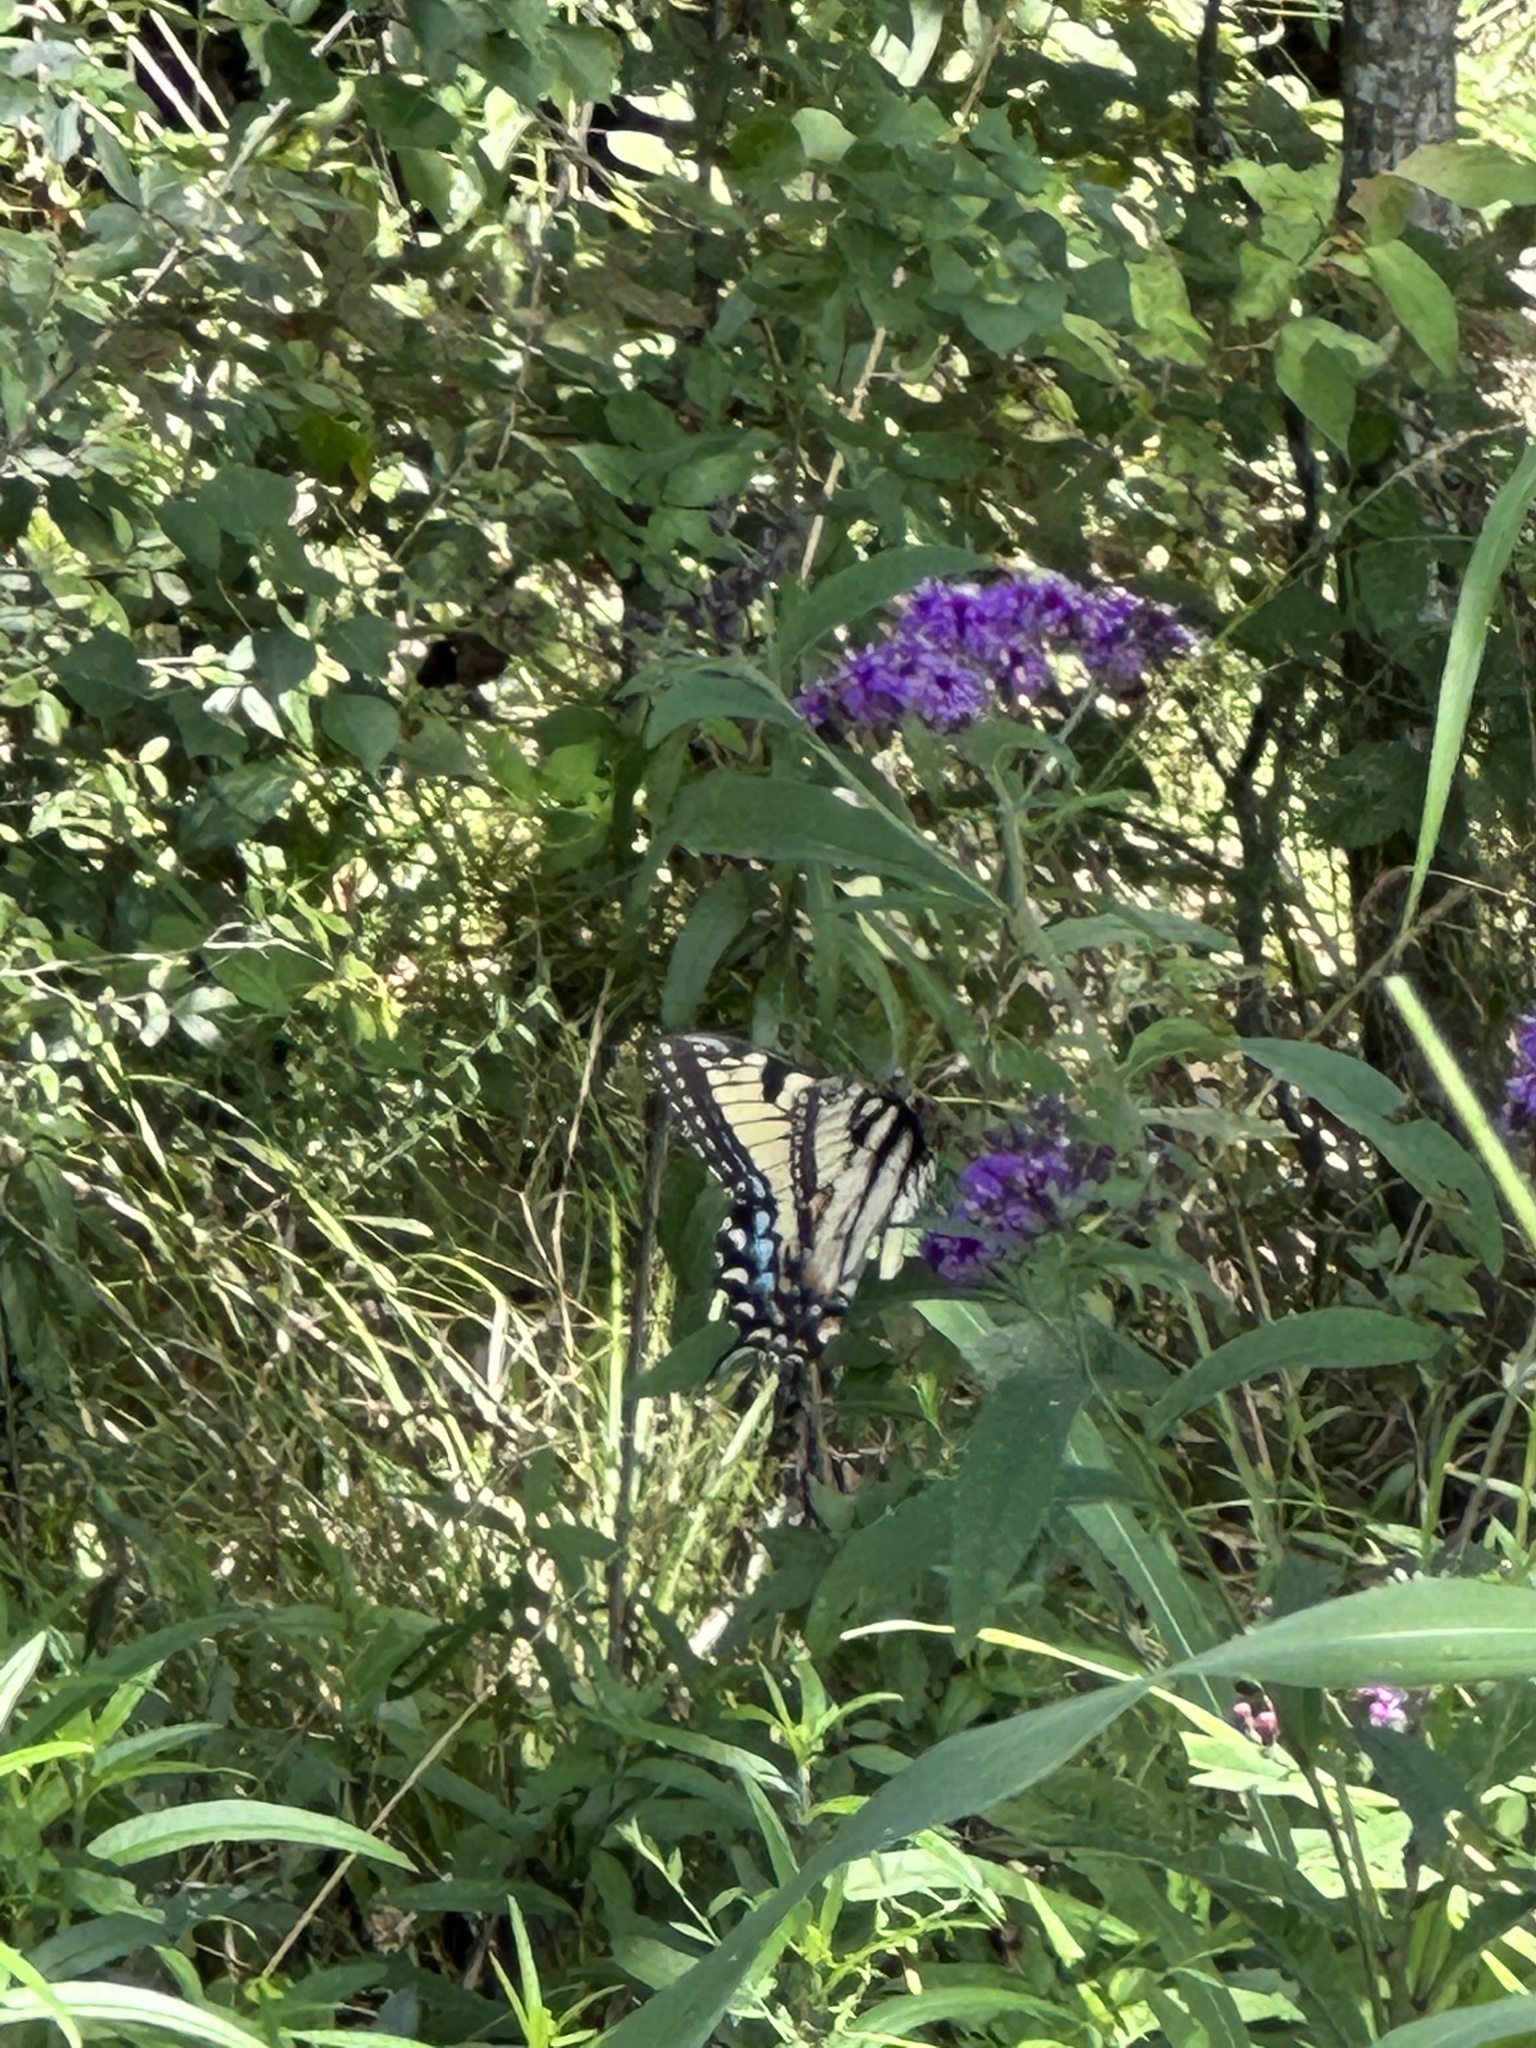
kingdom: Animalia
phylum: Arthropoda
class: Insecta
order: Lepidoptera
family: Papilionidae
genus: Papilio
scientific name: Papilio glaucus
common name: Tiger swallowtail
